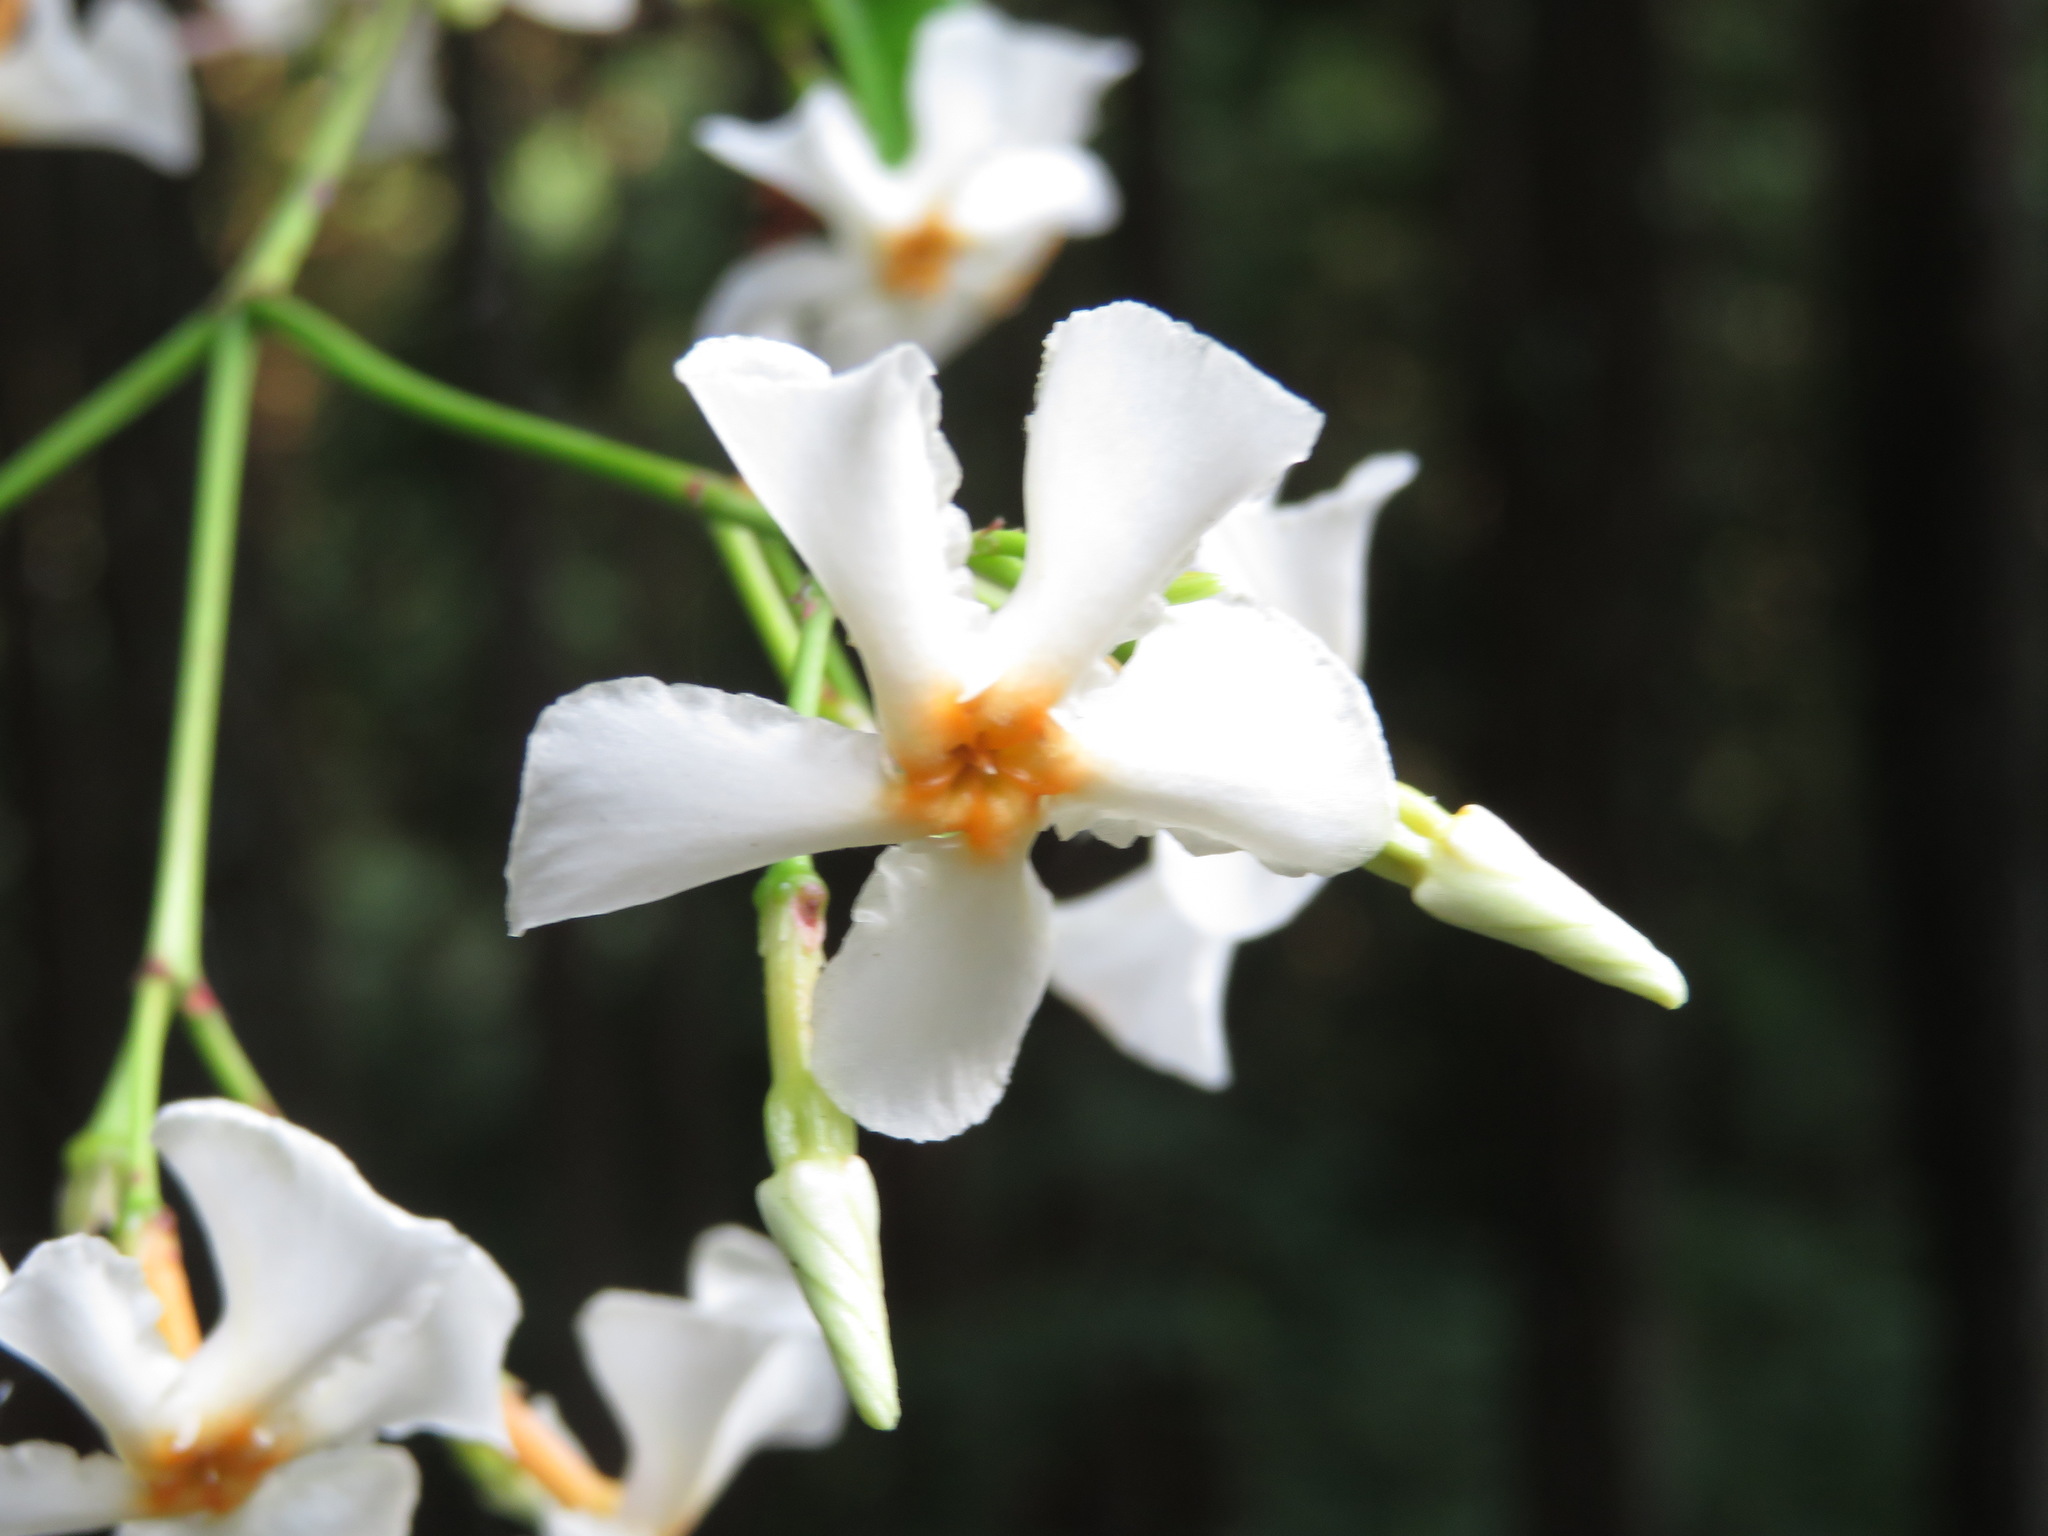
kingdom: Plantae
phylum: Tracheophyta
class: Magnoliopsida
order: Gentianales
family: Apocynaceae
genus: Trachelospermum
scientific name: Trachelospermum asiaticum
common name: Asiatic jasmine
